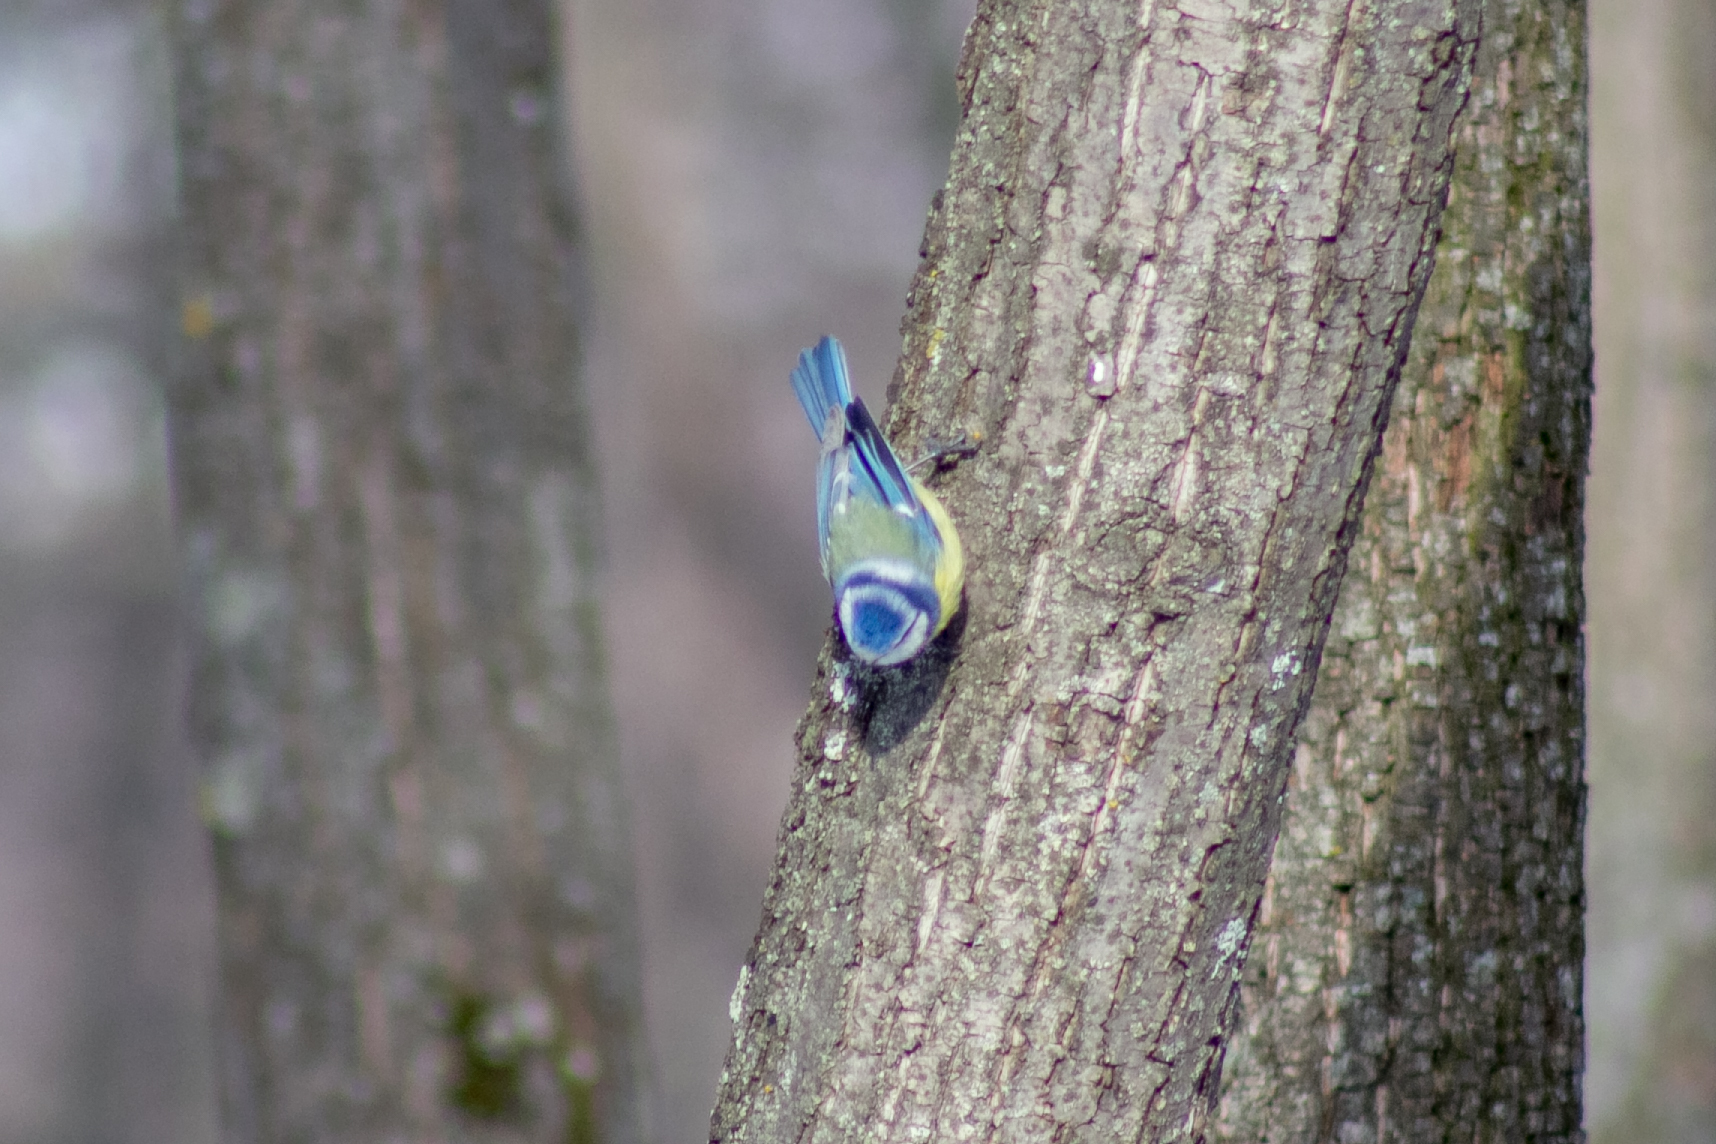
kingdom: Animalia
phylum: Chordata
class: Aves
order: Passeriformes
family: Paridae
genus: Cyanistes
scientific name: Cyanistes caeruleus
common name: Eurasian blue tit
